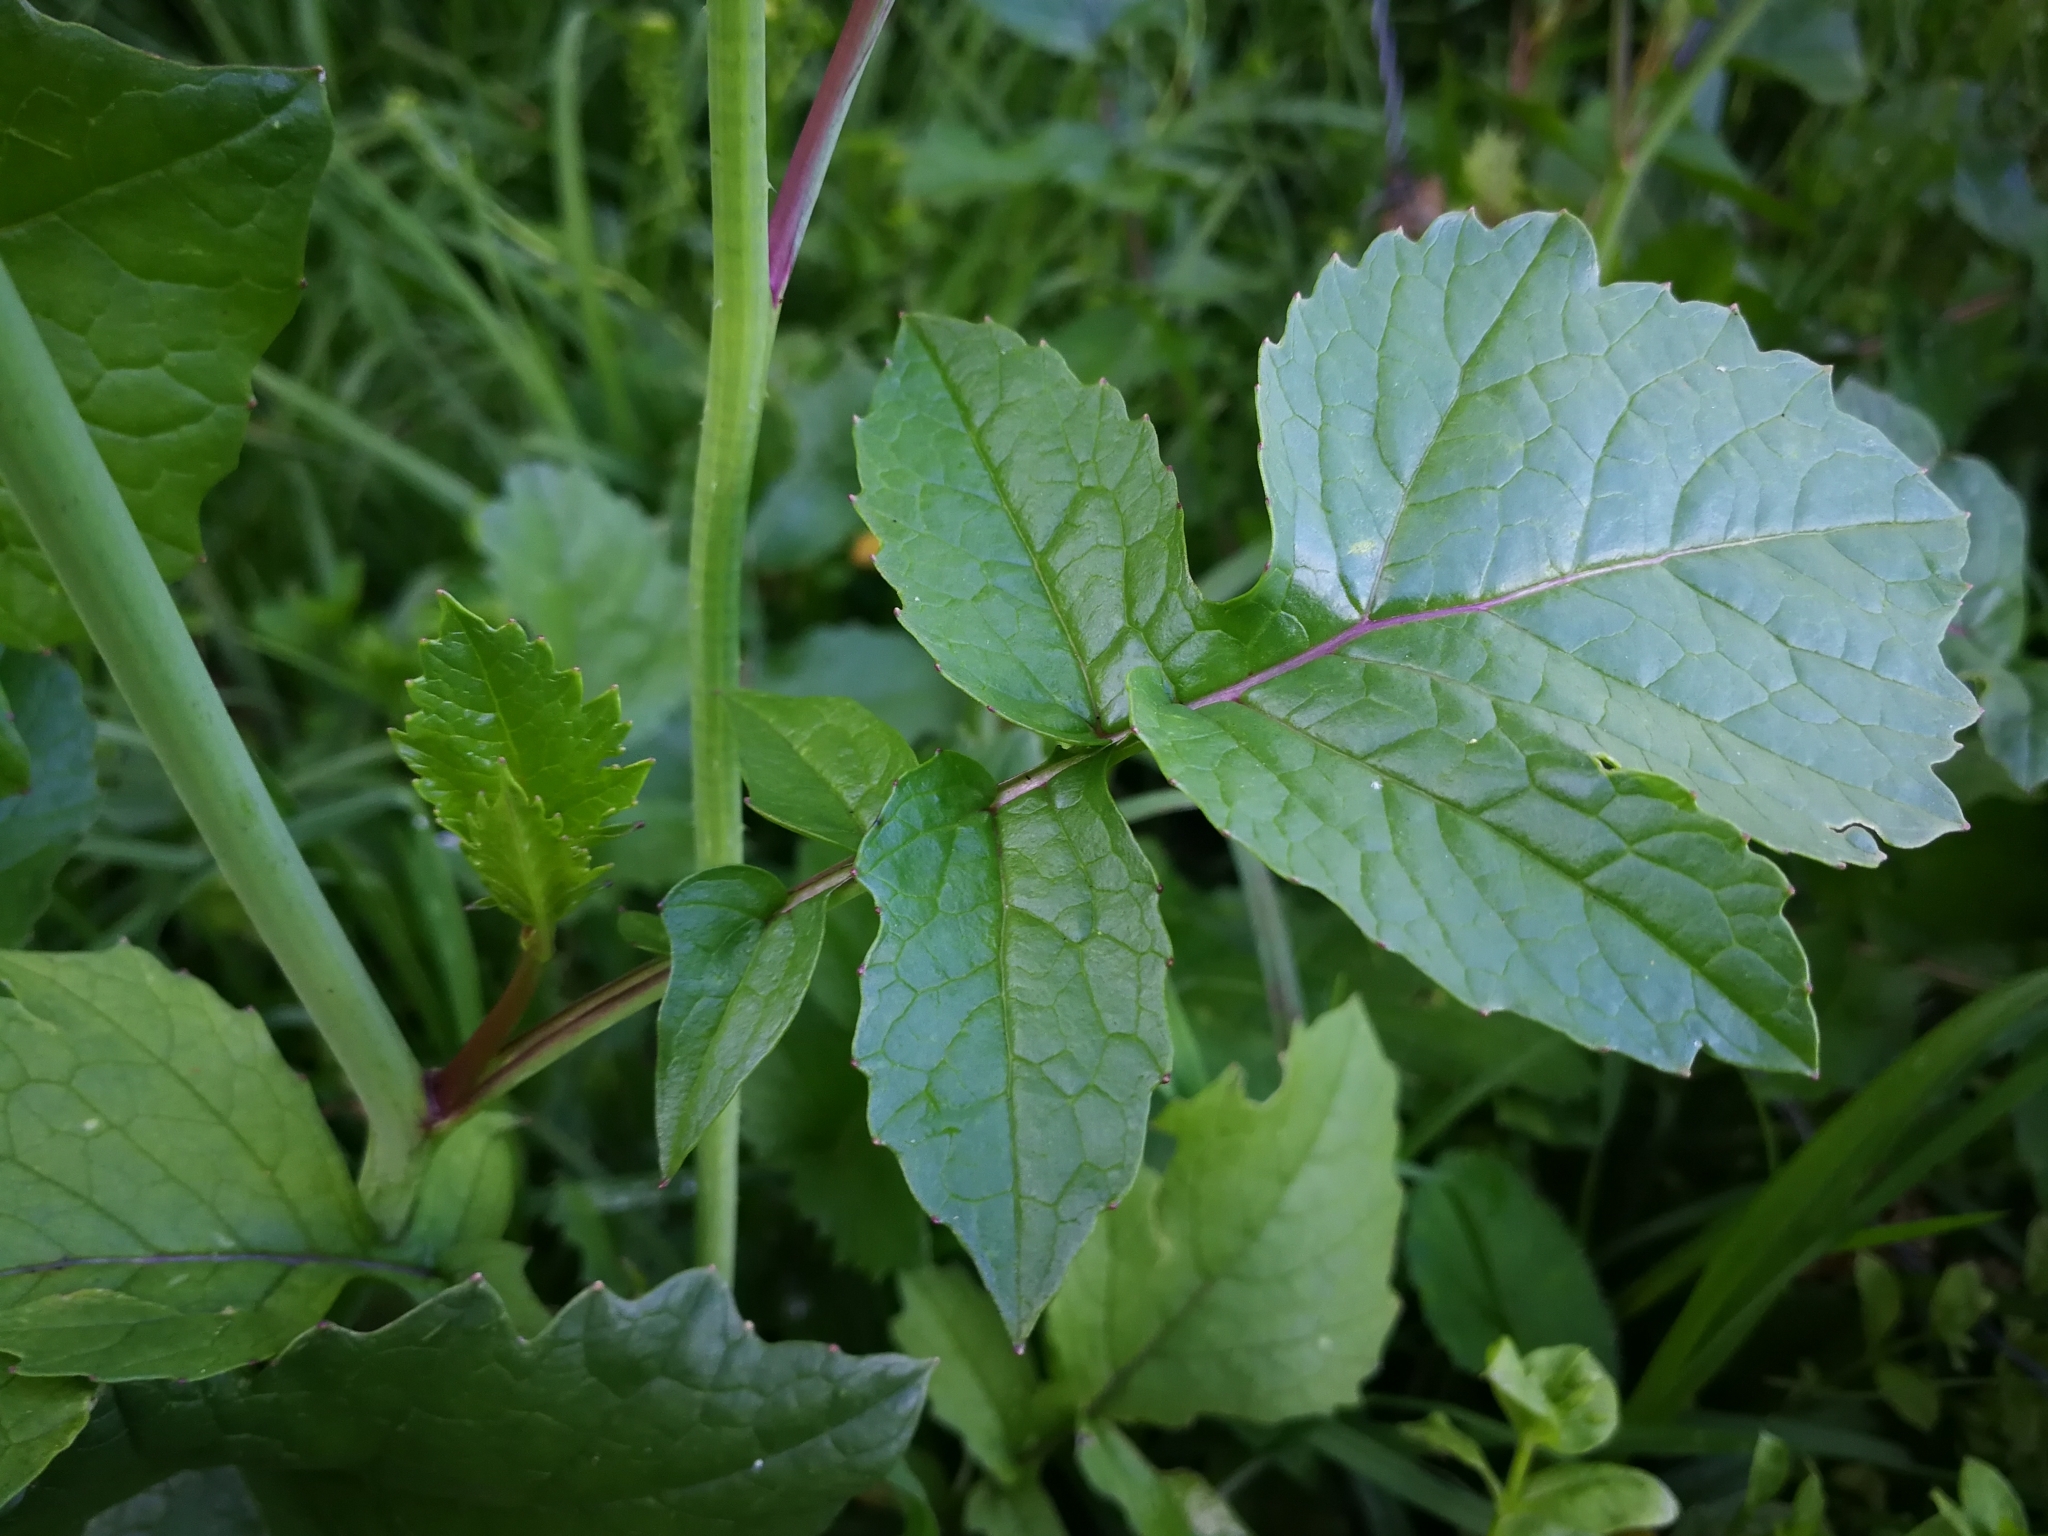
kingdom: Plantae
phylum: Tracheophyta
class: Magnoliopsida
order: Brassicales
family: Brassicaceae
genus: Raphanus
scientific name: Raphanus sativus
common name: Cultivated radish
